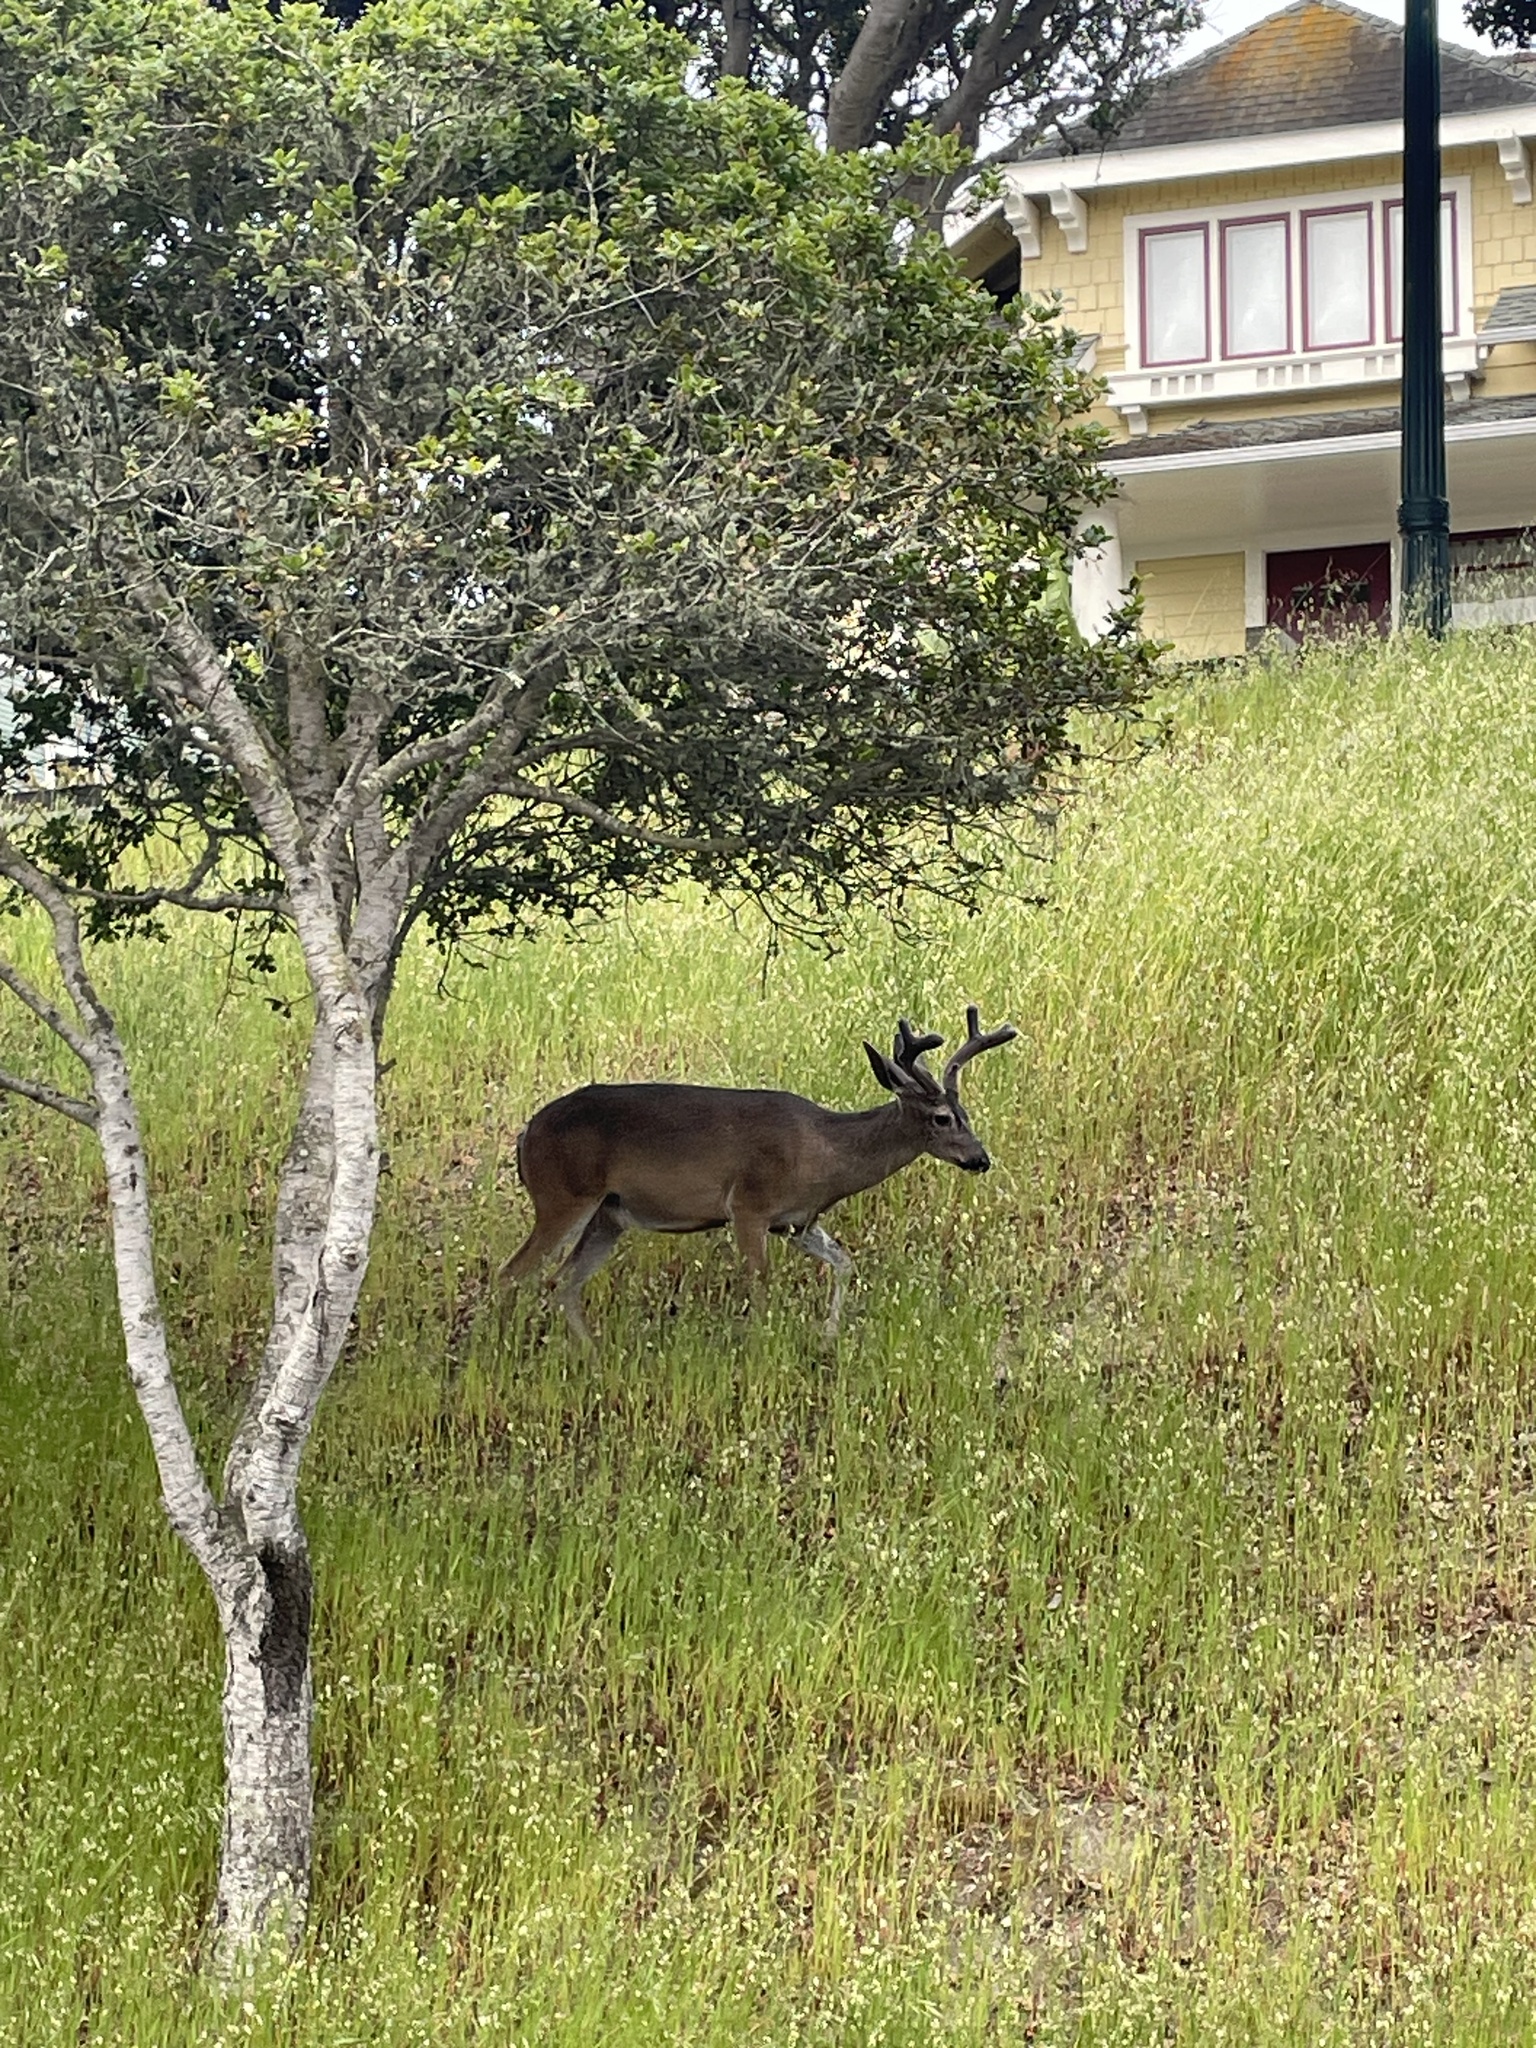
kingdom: Animalia
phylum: Chordata
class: Mammalia
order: Artiodactyla
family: Cervidae
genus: Odocoileus
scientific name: Odocoileus hemionus
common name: Mule deer
